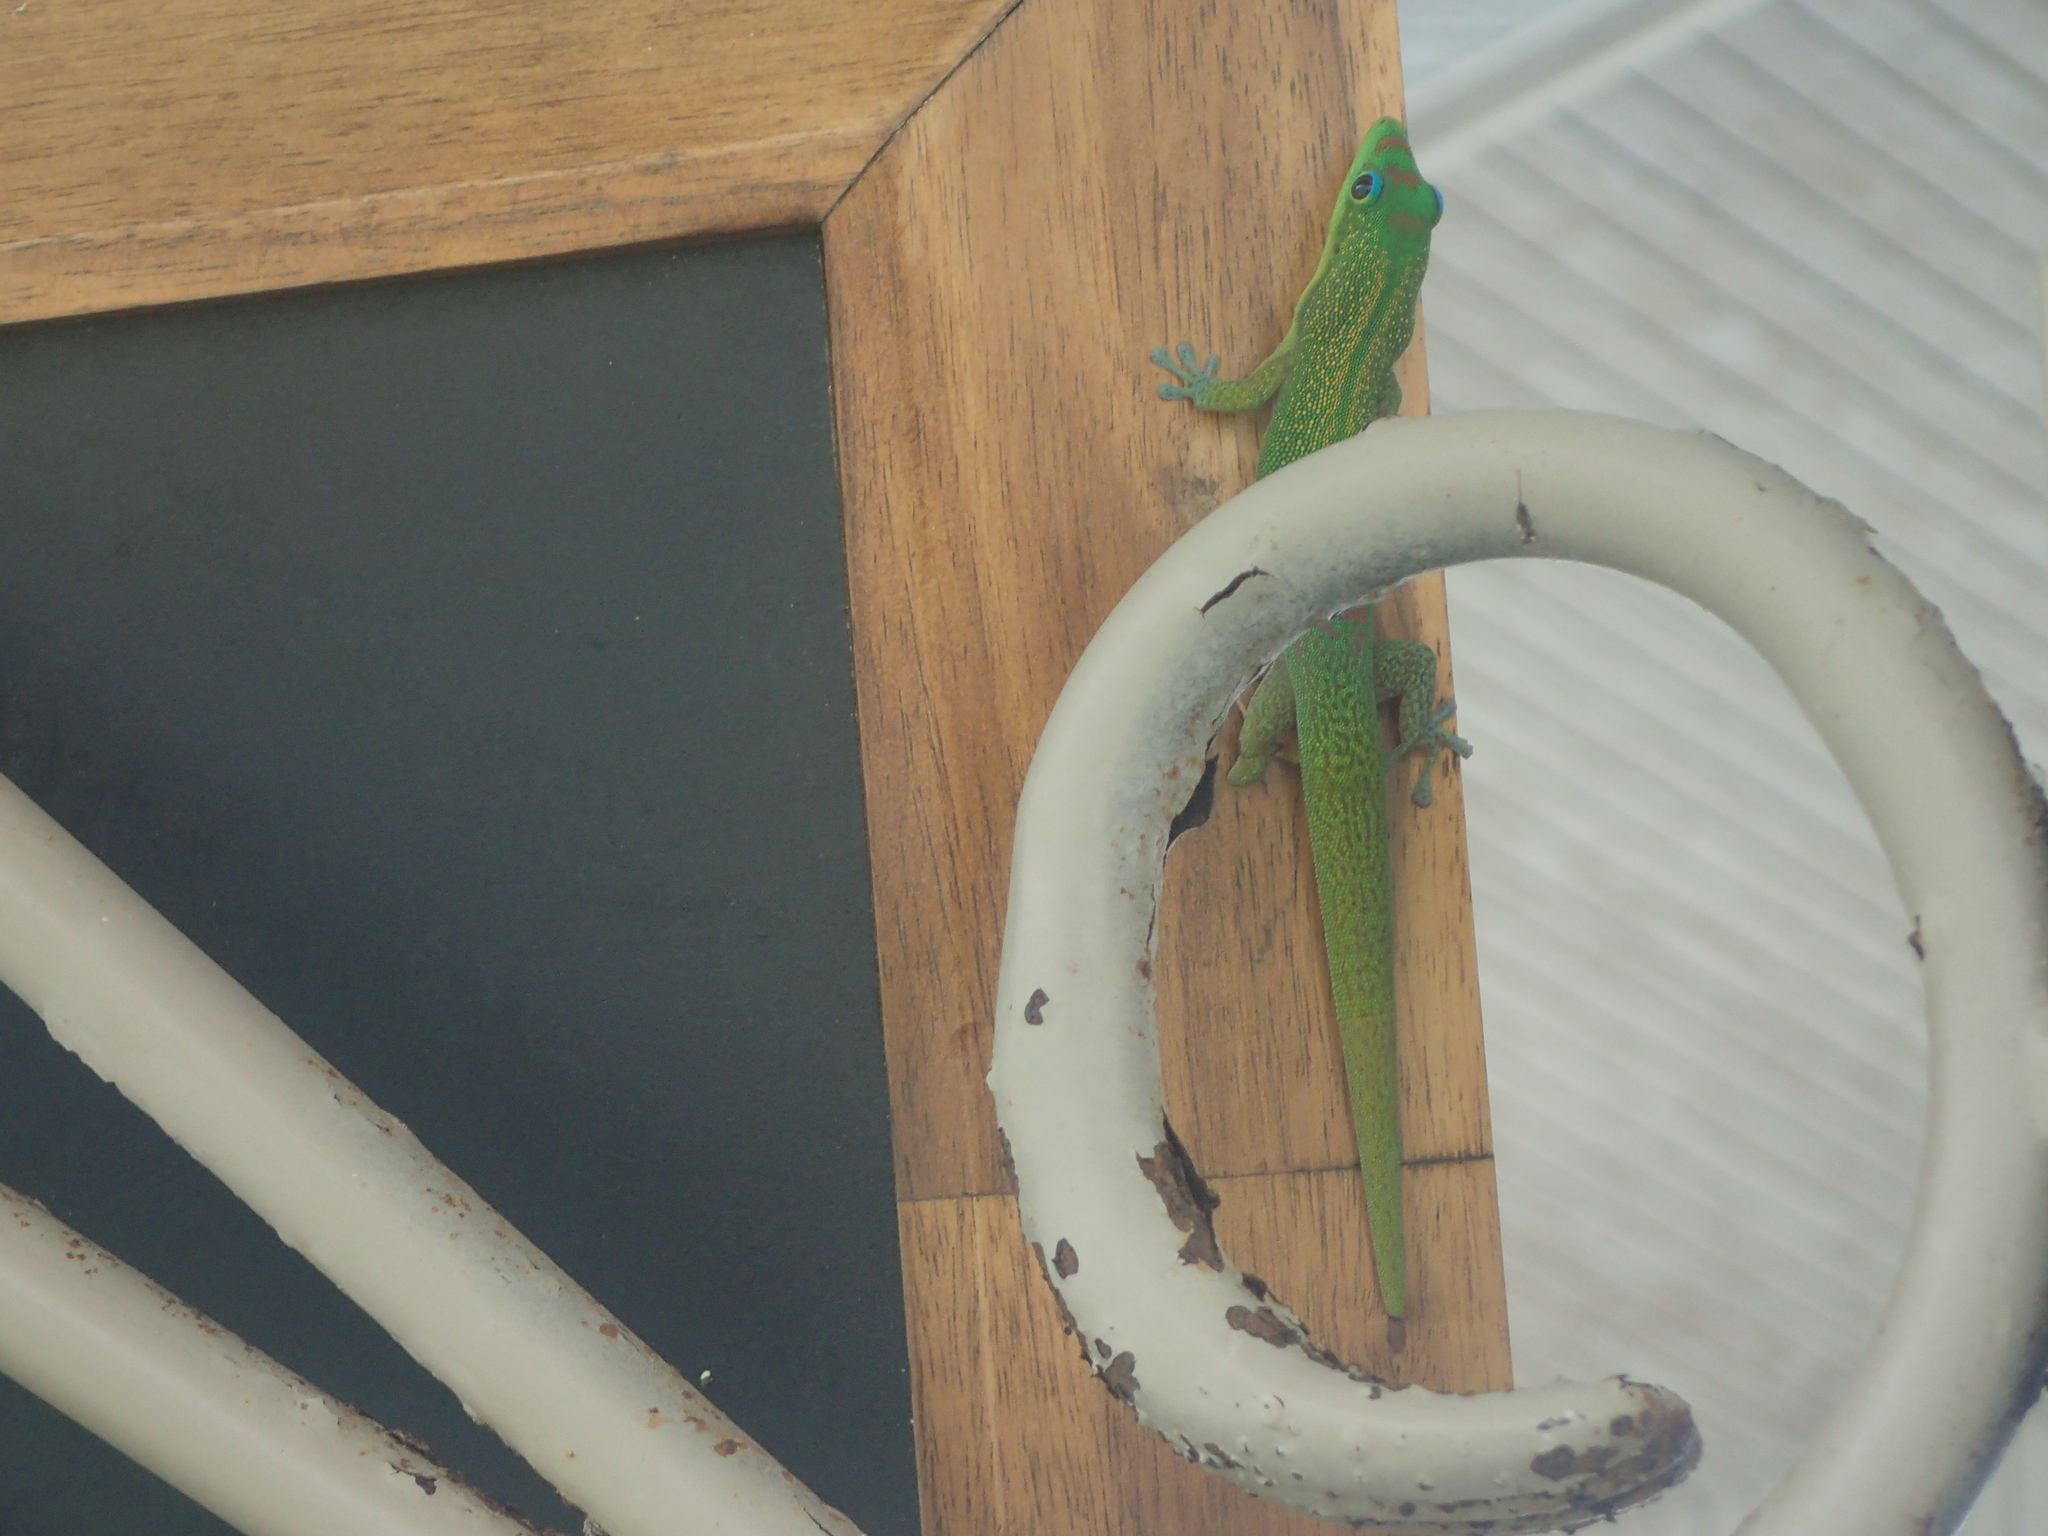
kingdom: Animalia
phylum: Chordata
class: Squamata
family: Gekkonidae
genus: Phelsuma
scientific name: Phelsuma laticauda
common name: Gold dust day gecko
